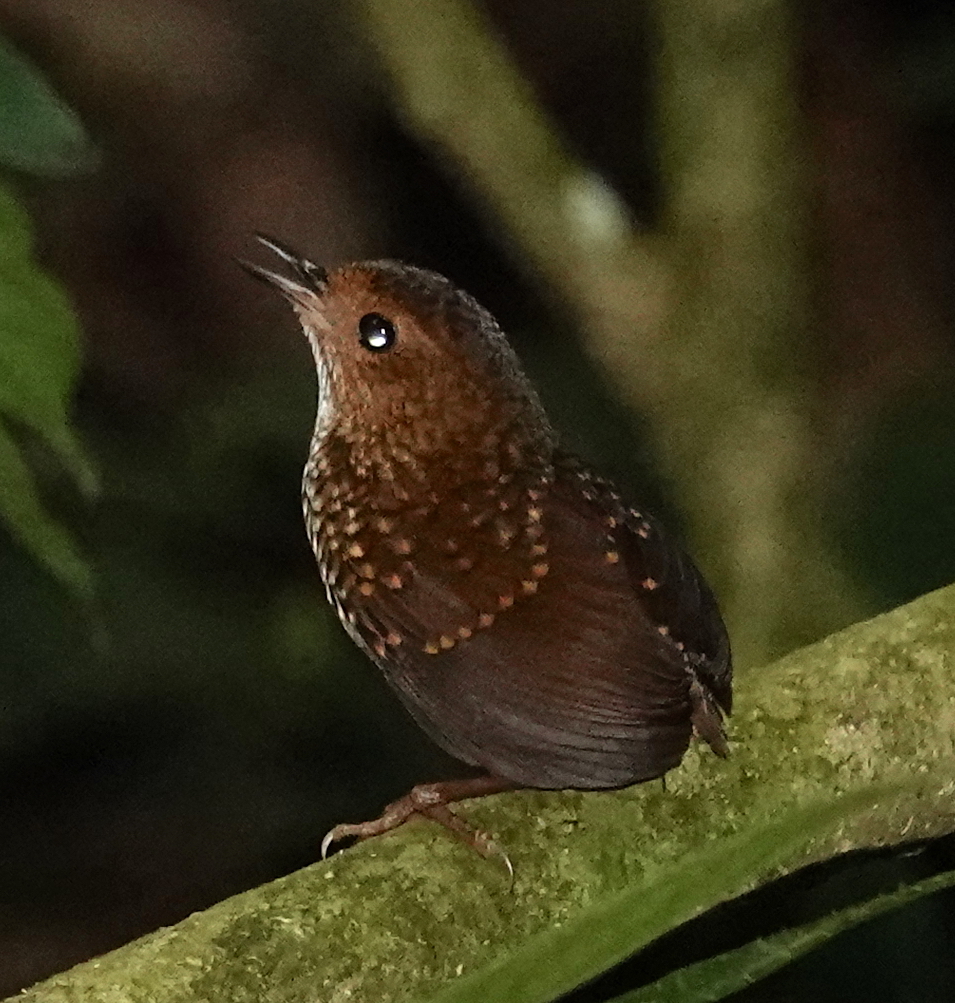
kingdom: Animalia
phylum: Chordata
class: Aves
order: Passeriformes
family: Pnoepygidae
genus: Pnoepyga
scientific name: Pnoepyga pusilla
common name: Pygmy wren-babbler
